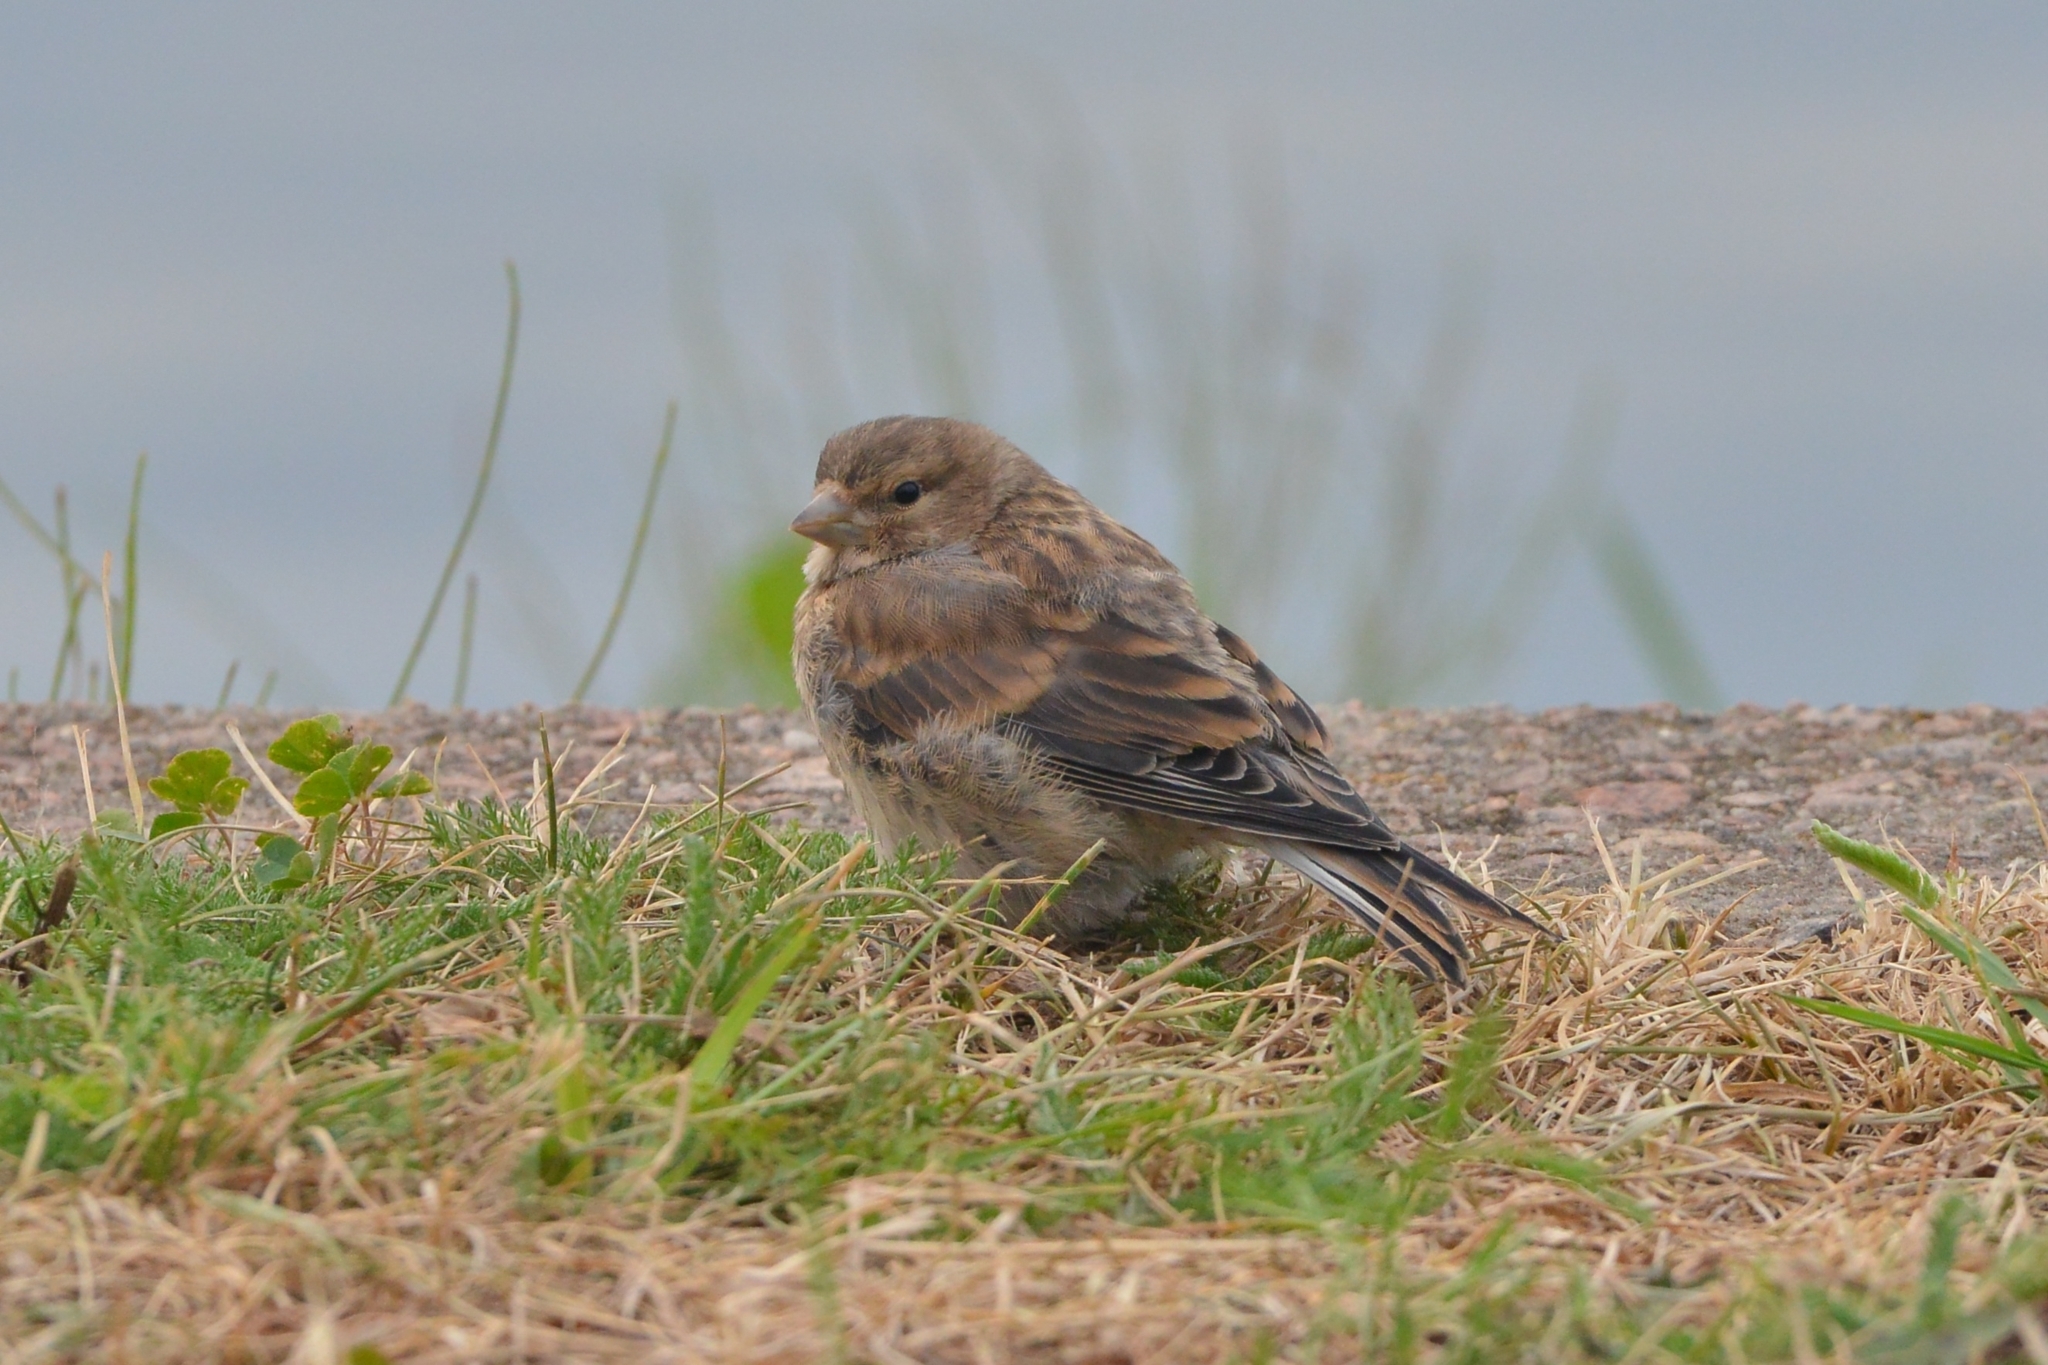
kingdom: Animalia
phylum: Chordata
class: Aves
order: Passeriformes
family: Fringillidae
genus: Linaria
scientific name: Linaria cannabina
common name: Common linnet
